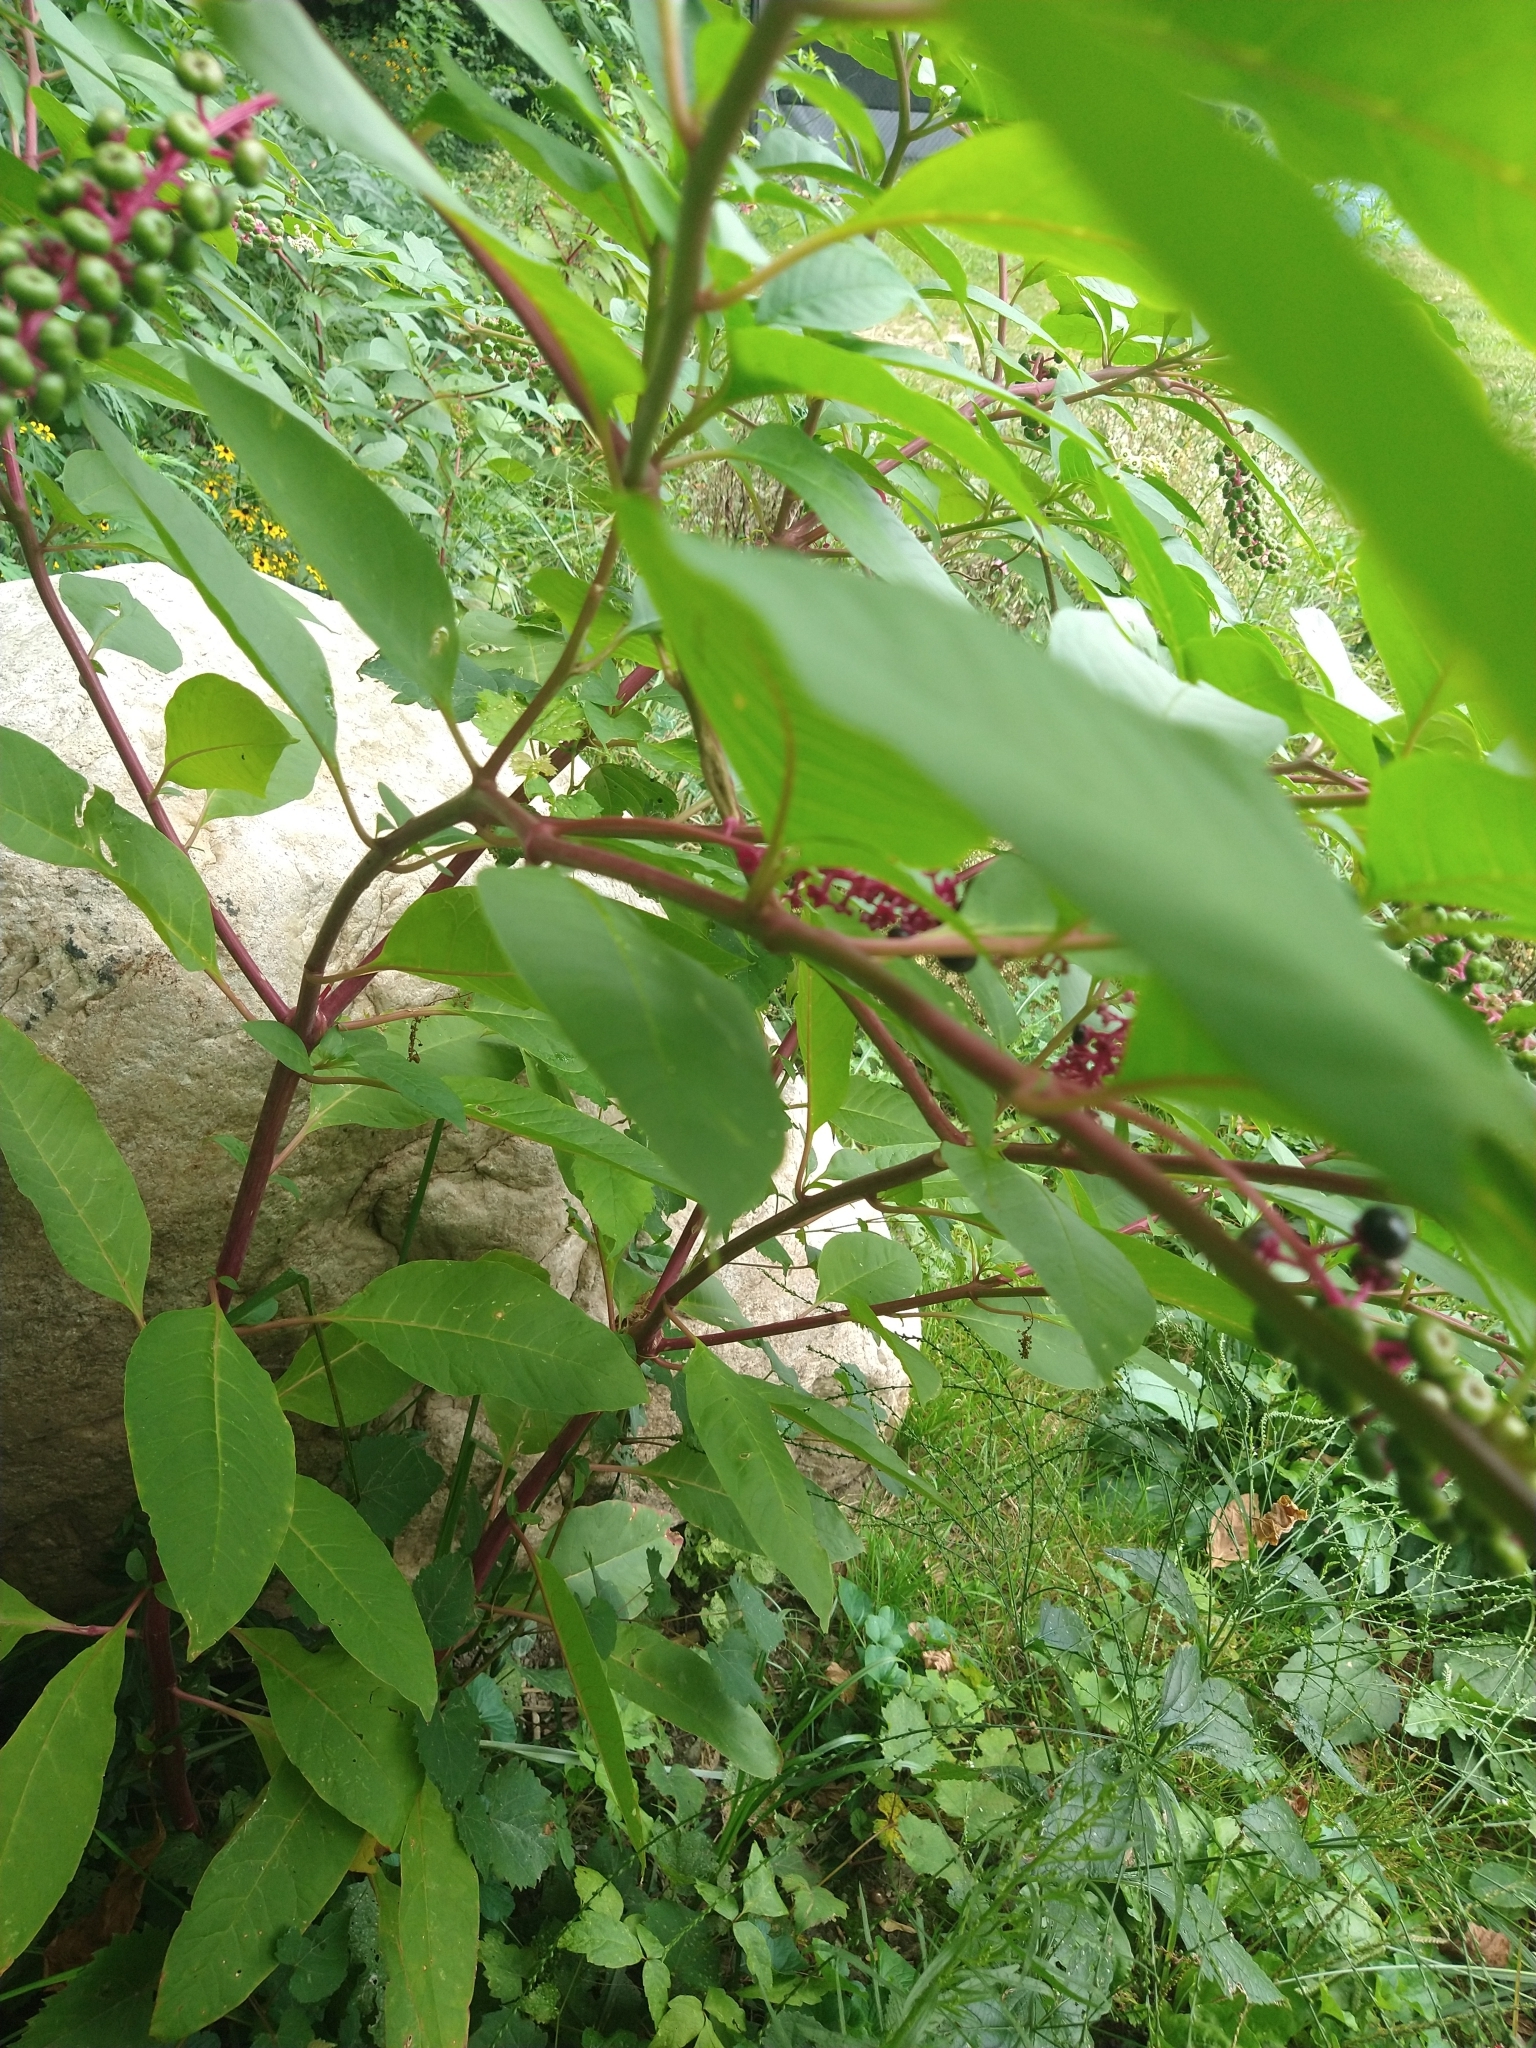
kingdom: Plantae
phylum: Tracheophyta
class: Magnoliopsida
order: Caryophyllales
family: Phytolaccaceae
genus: Phytolacca
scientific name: Phytolacca americana
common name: American pokeweed
